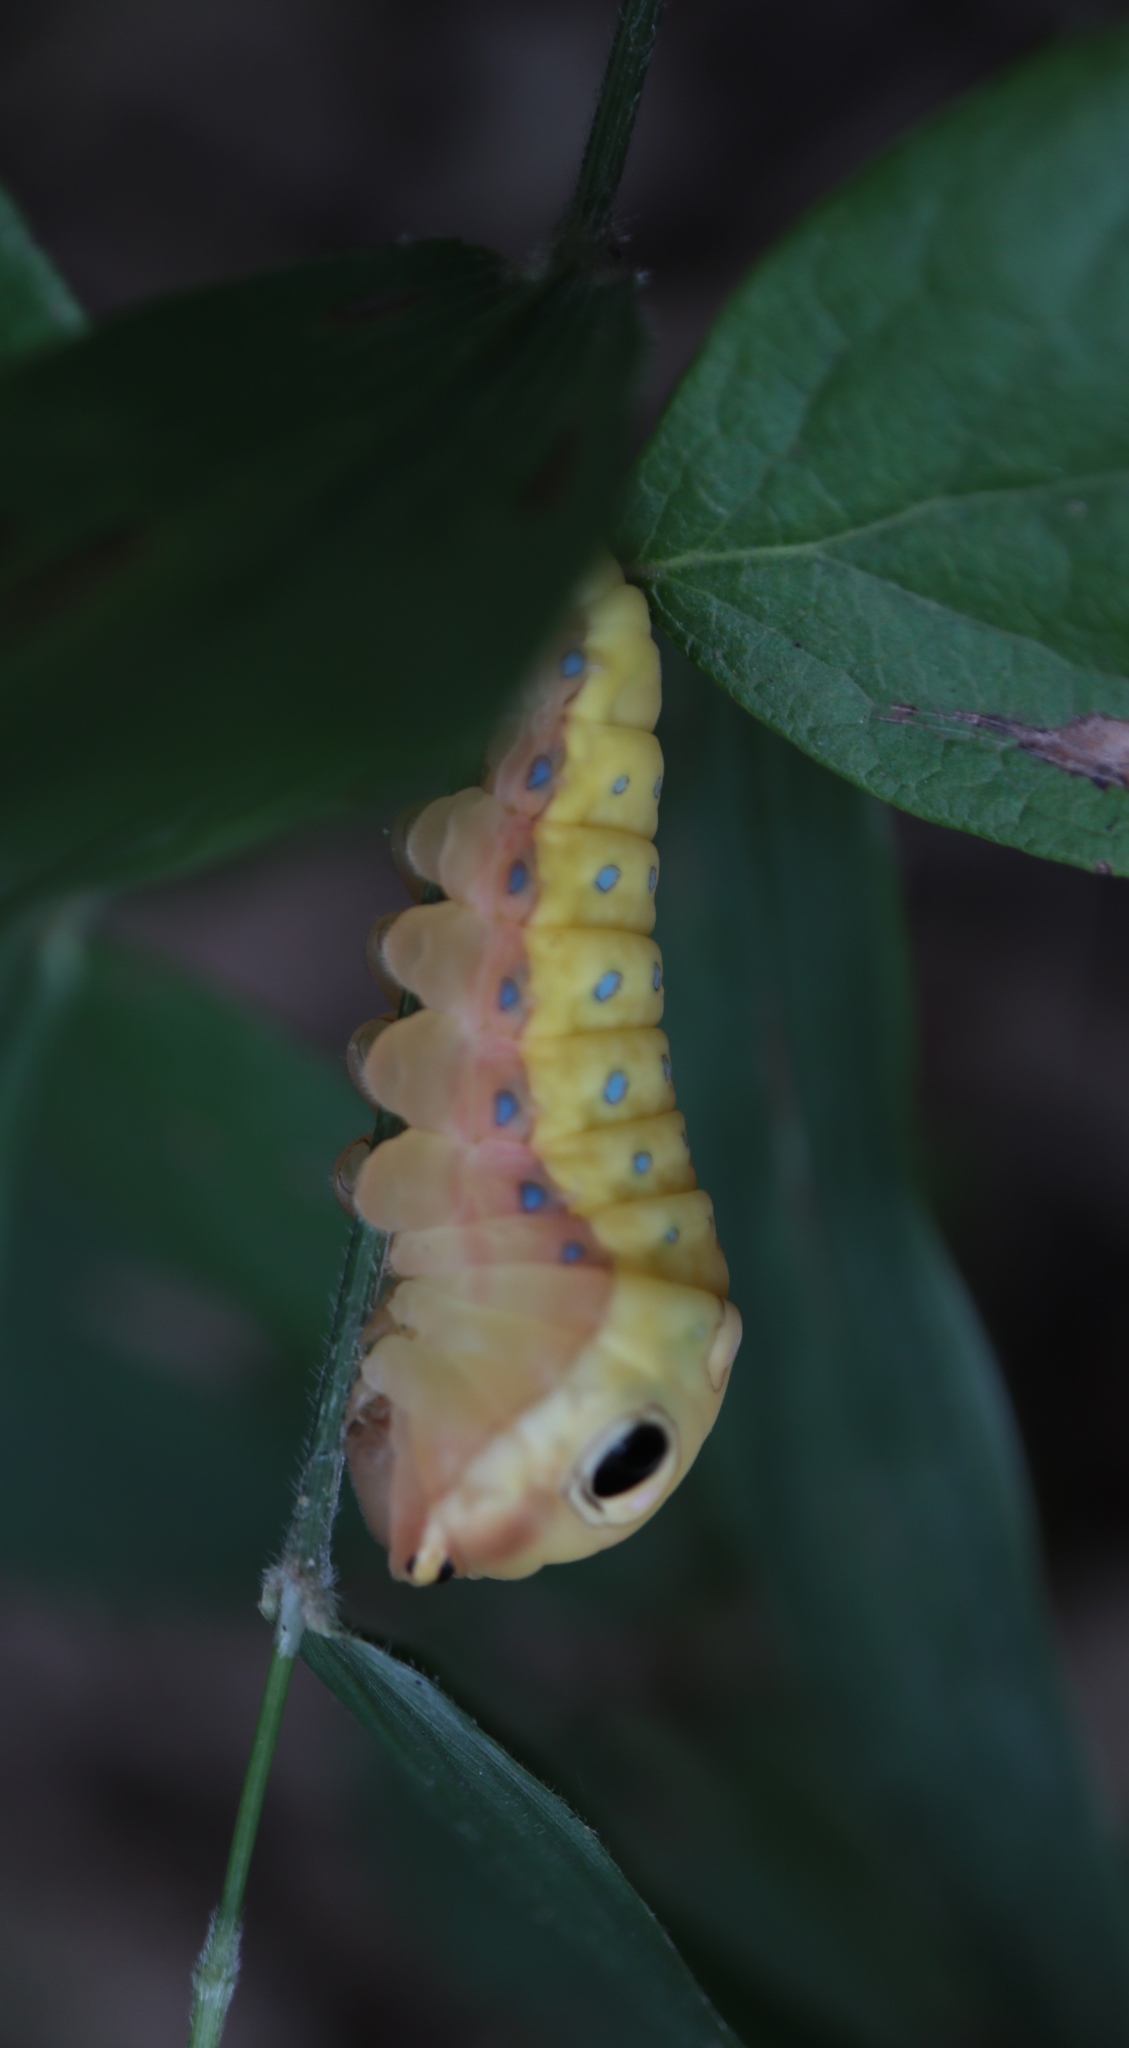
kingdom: Animalia
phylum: Arthropoda
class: Insecta
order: Lepidoptera
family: Papilionidae
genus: Papilio
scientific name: Papilio troilus
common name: Spicebush swallowtail
